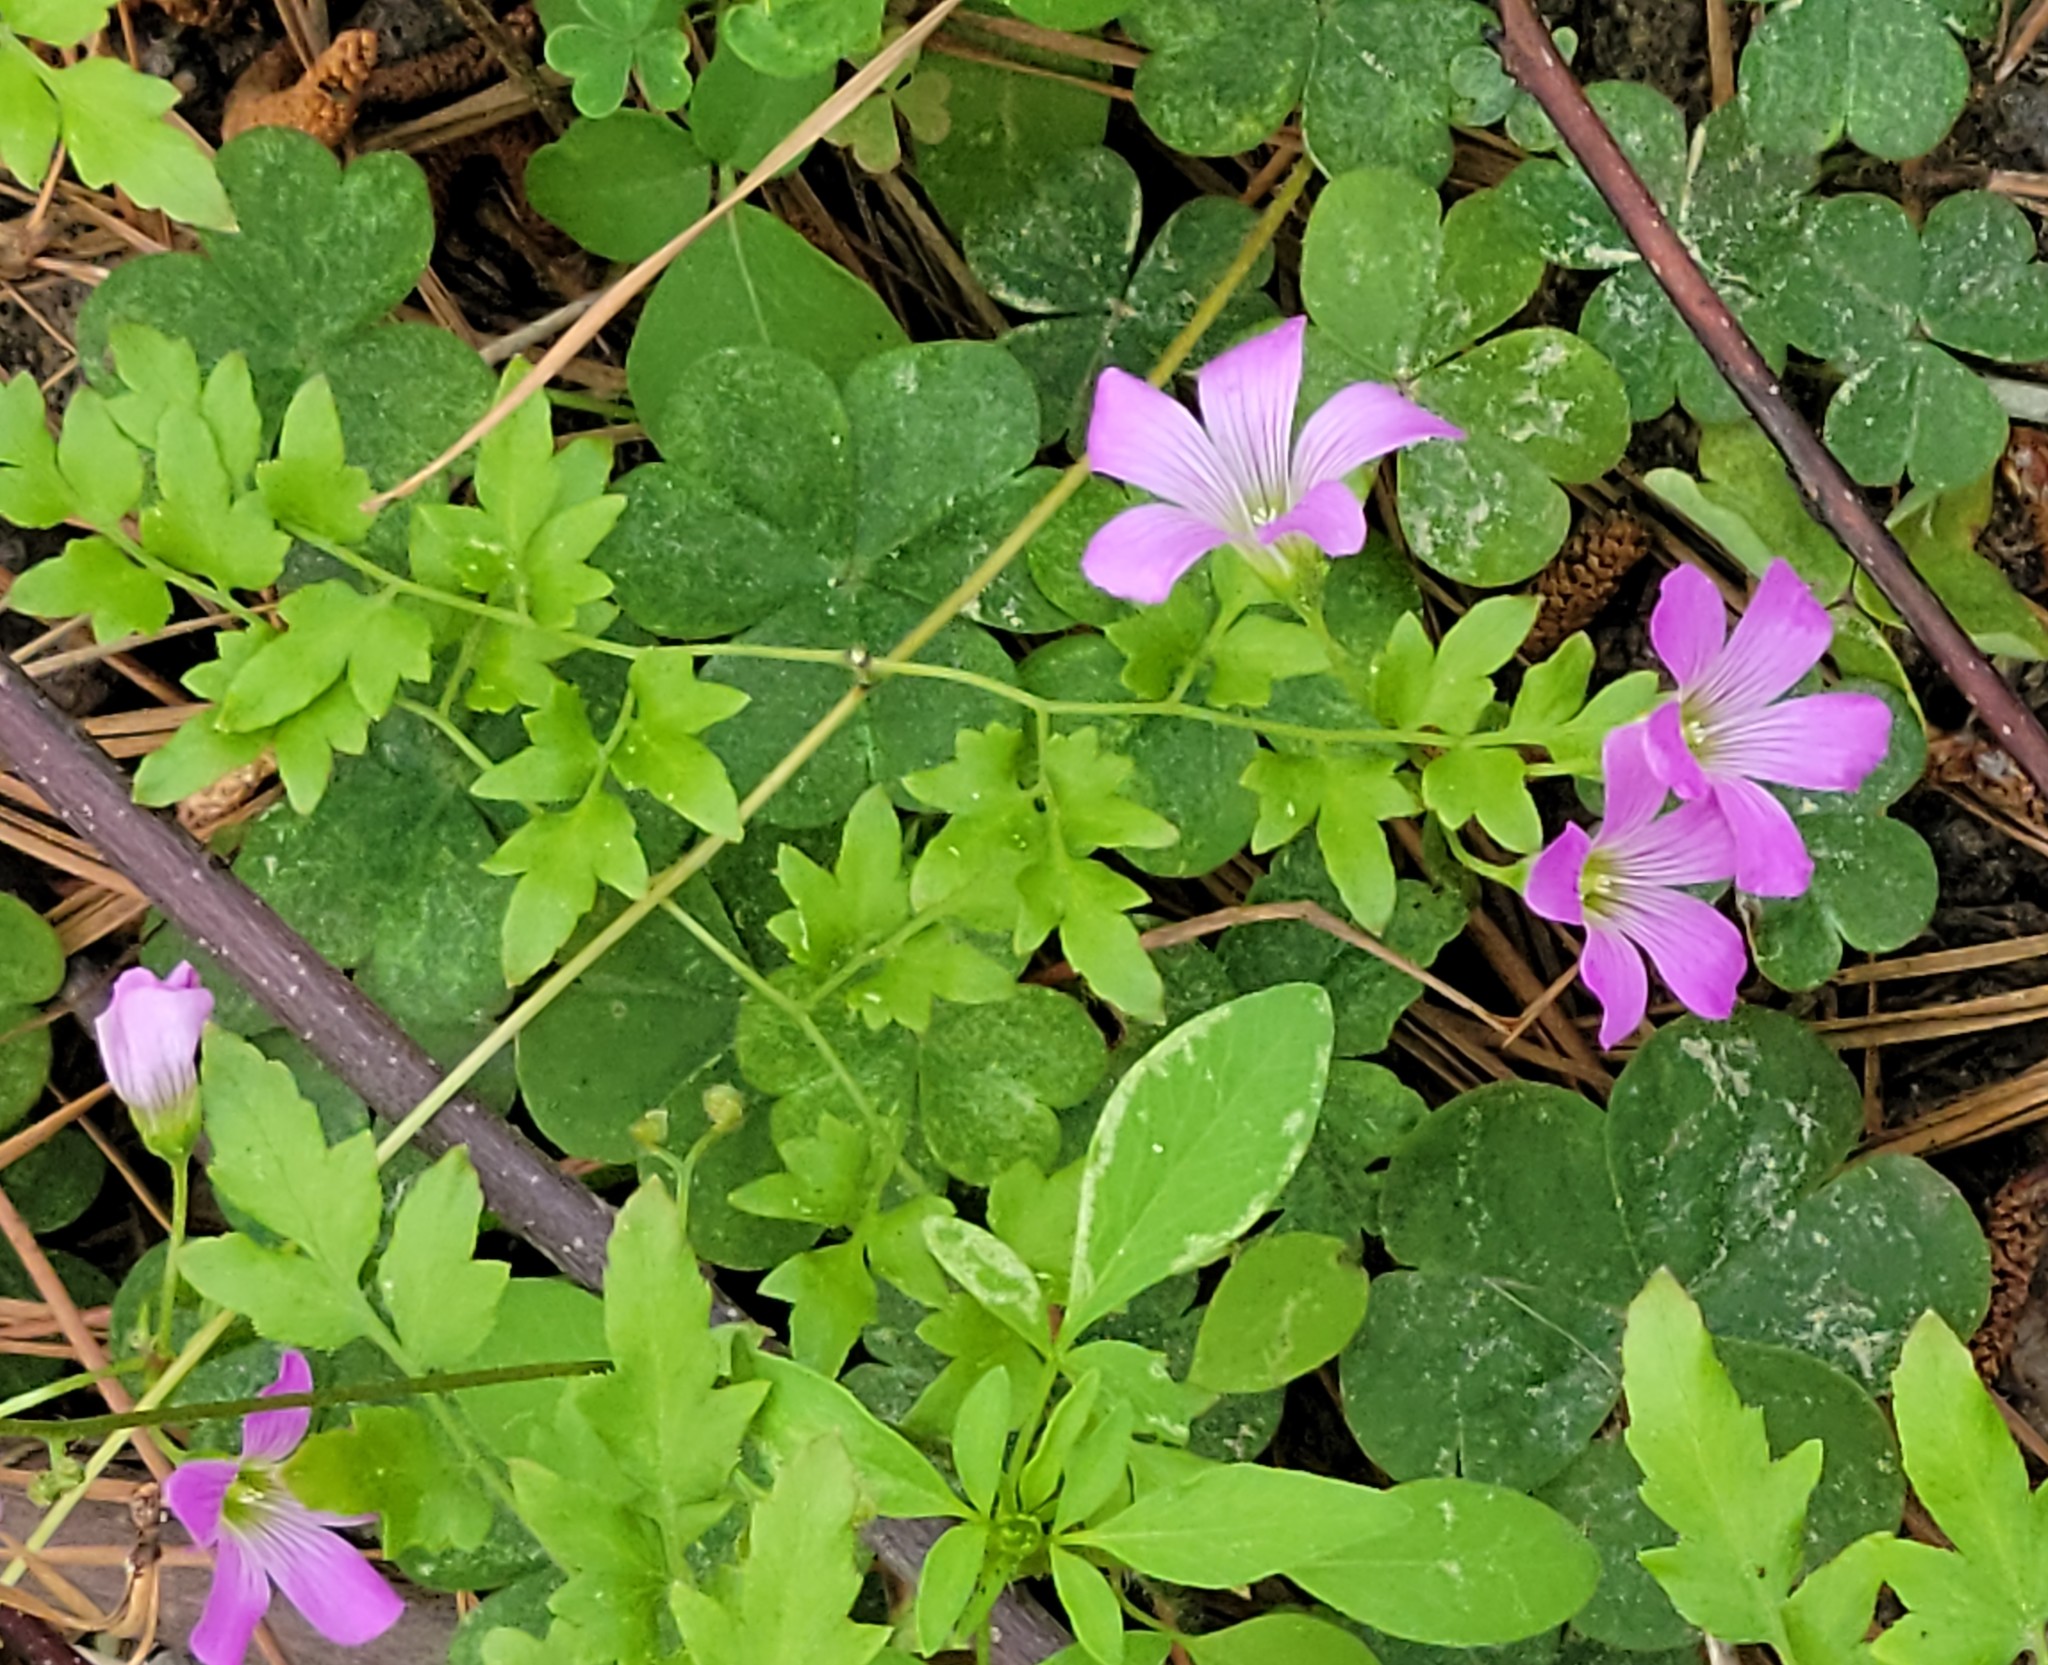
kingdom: Plantae
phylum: Tracheophyta
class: Magnoliopsida
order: Oxalidales
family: Oxalidaceae
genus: Oxalis
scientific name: Oxalis debilis
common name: Large-flowered pink-sorrel
